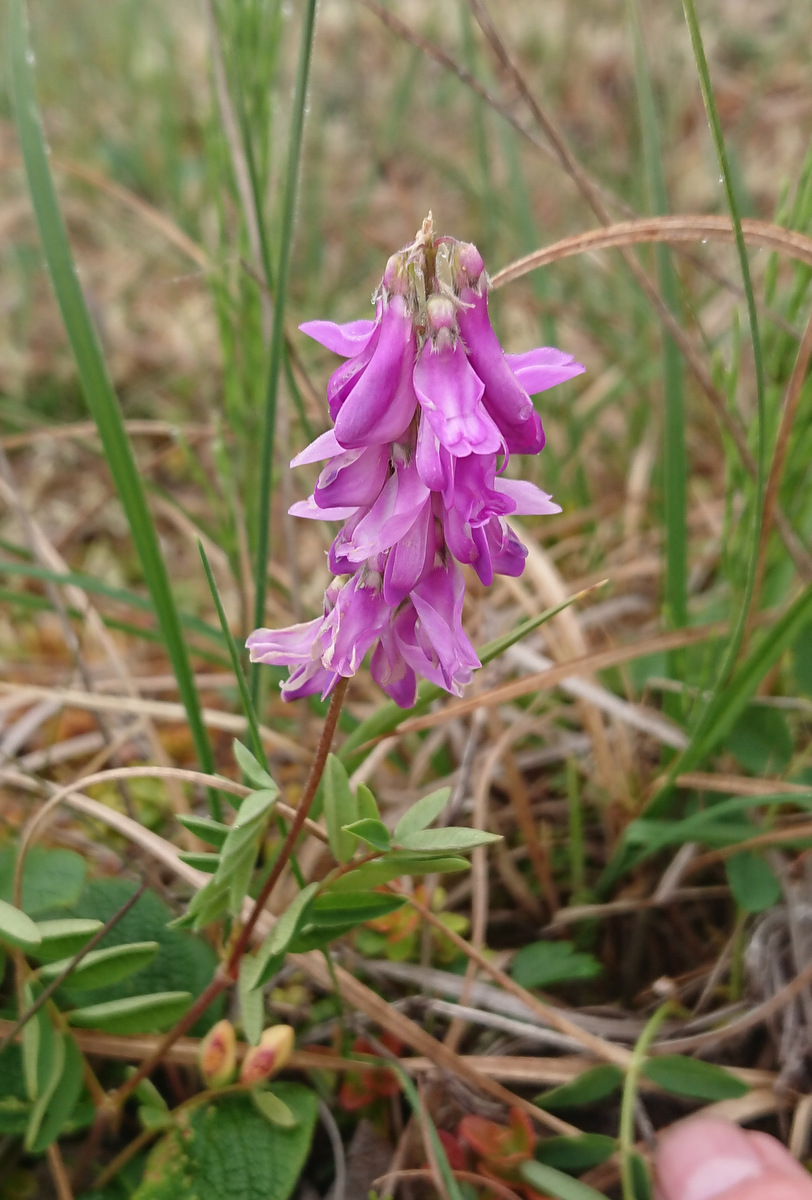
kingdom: Plantae
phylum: Tracheophyta
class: Magnoliopsida
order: Fabales
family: Fabaceae
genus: Hedysarum
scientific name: Hedysarum alpinum
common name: Alpine sweet-vetch
